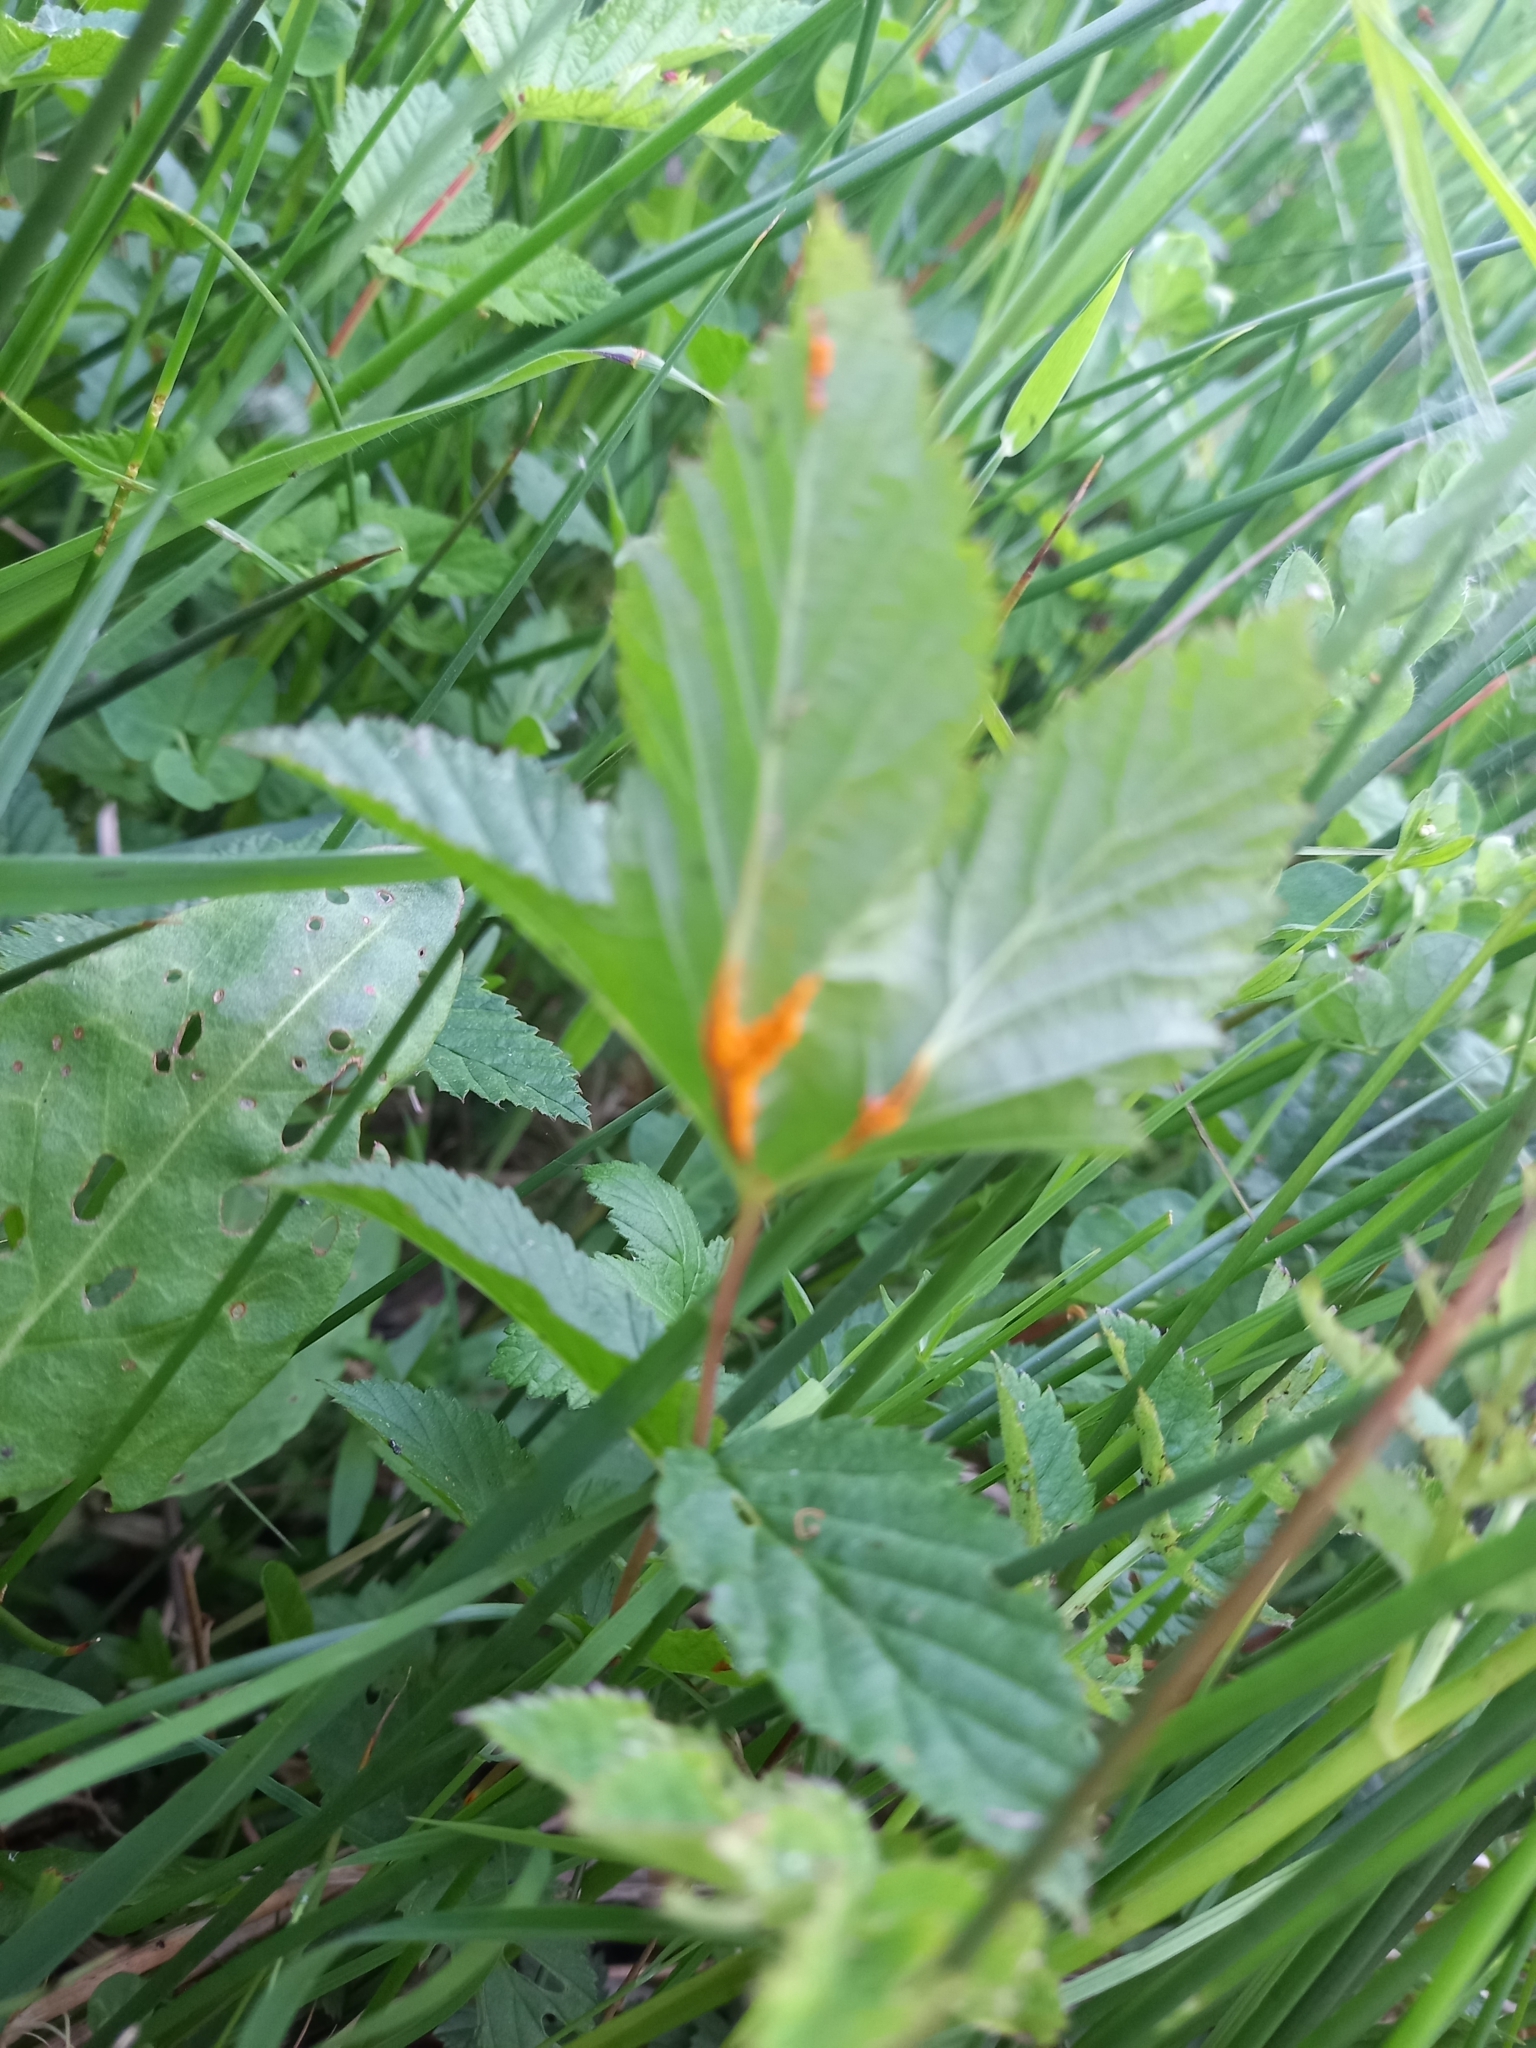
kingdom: Fungi
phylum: Basidiomycota
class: Pucciniomycetes
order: Pucciniales
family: Raveneliaceae
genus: Triphragmium
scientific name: Triphragmium ulmariae
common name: Meadowsweet rust
